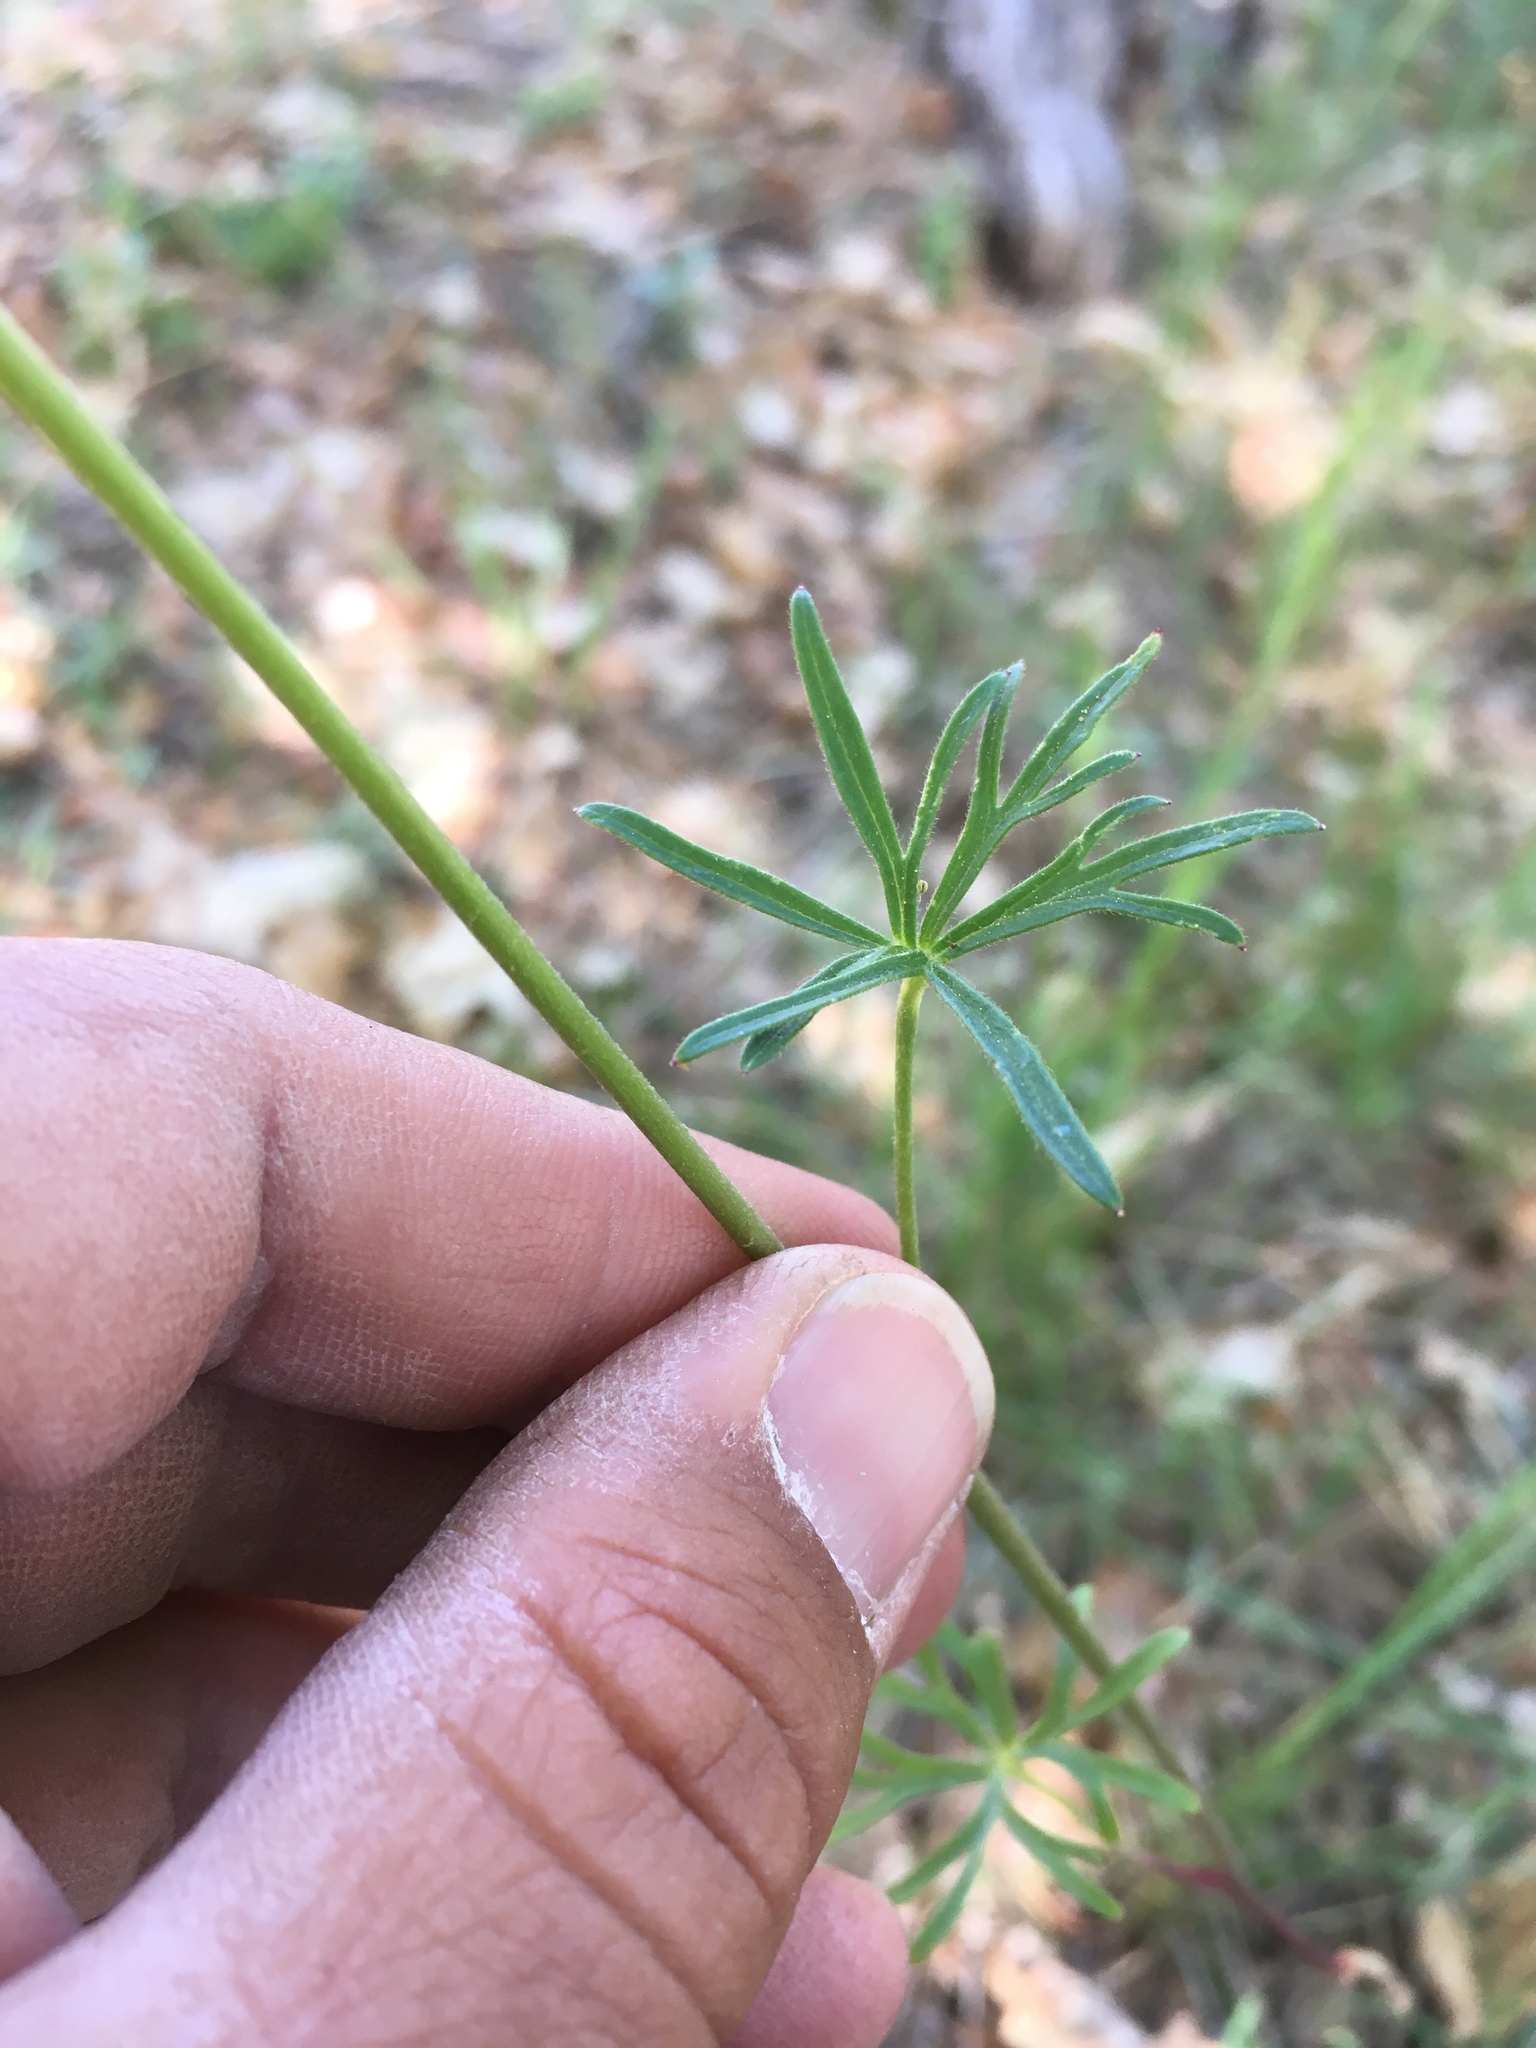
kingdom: Plantae
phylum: Tracheophyta
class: Magnoliopsida
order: Ranunculales
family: Ranunculaceae
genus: Delphinium
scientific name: Delphinium nuttallianum
